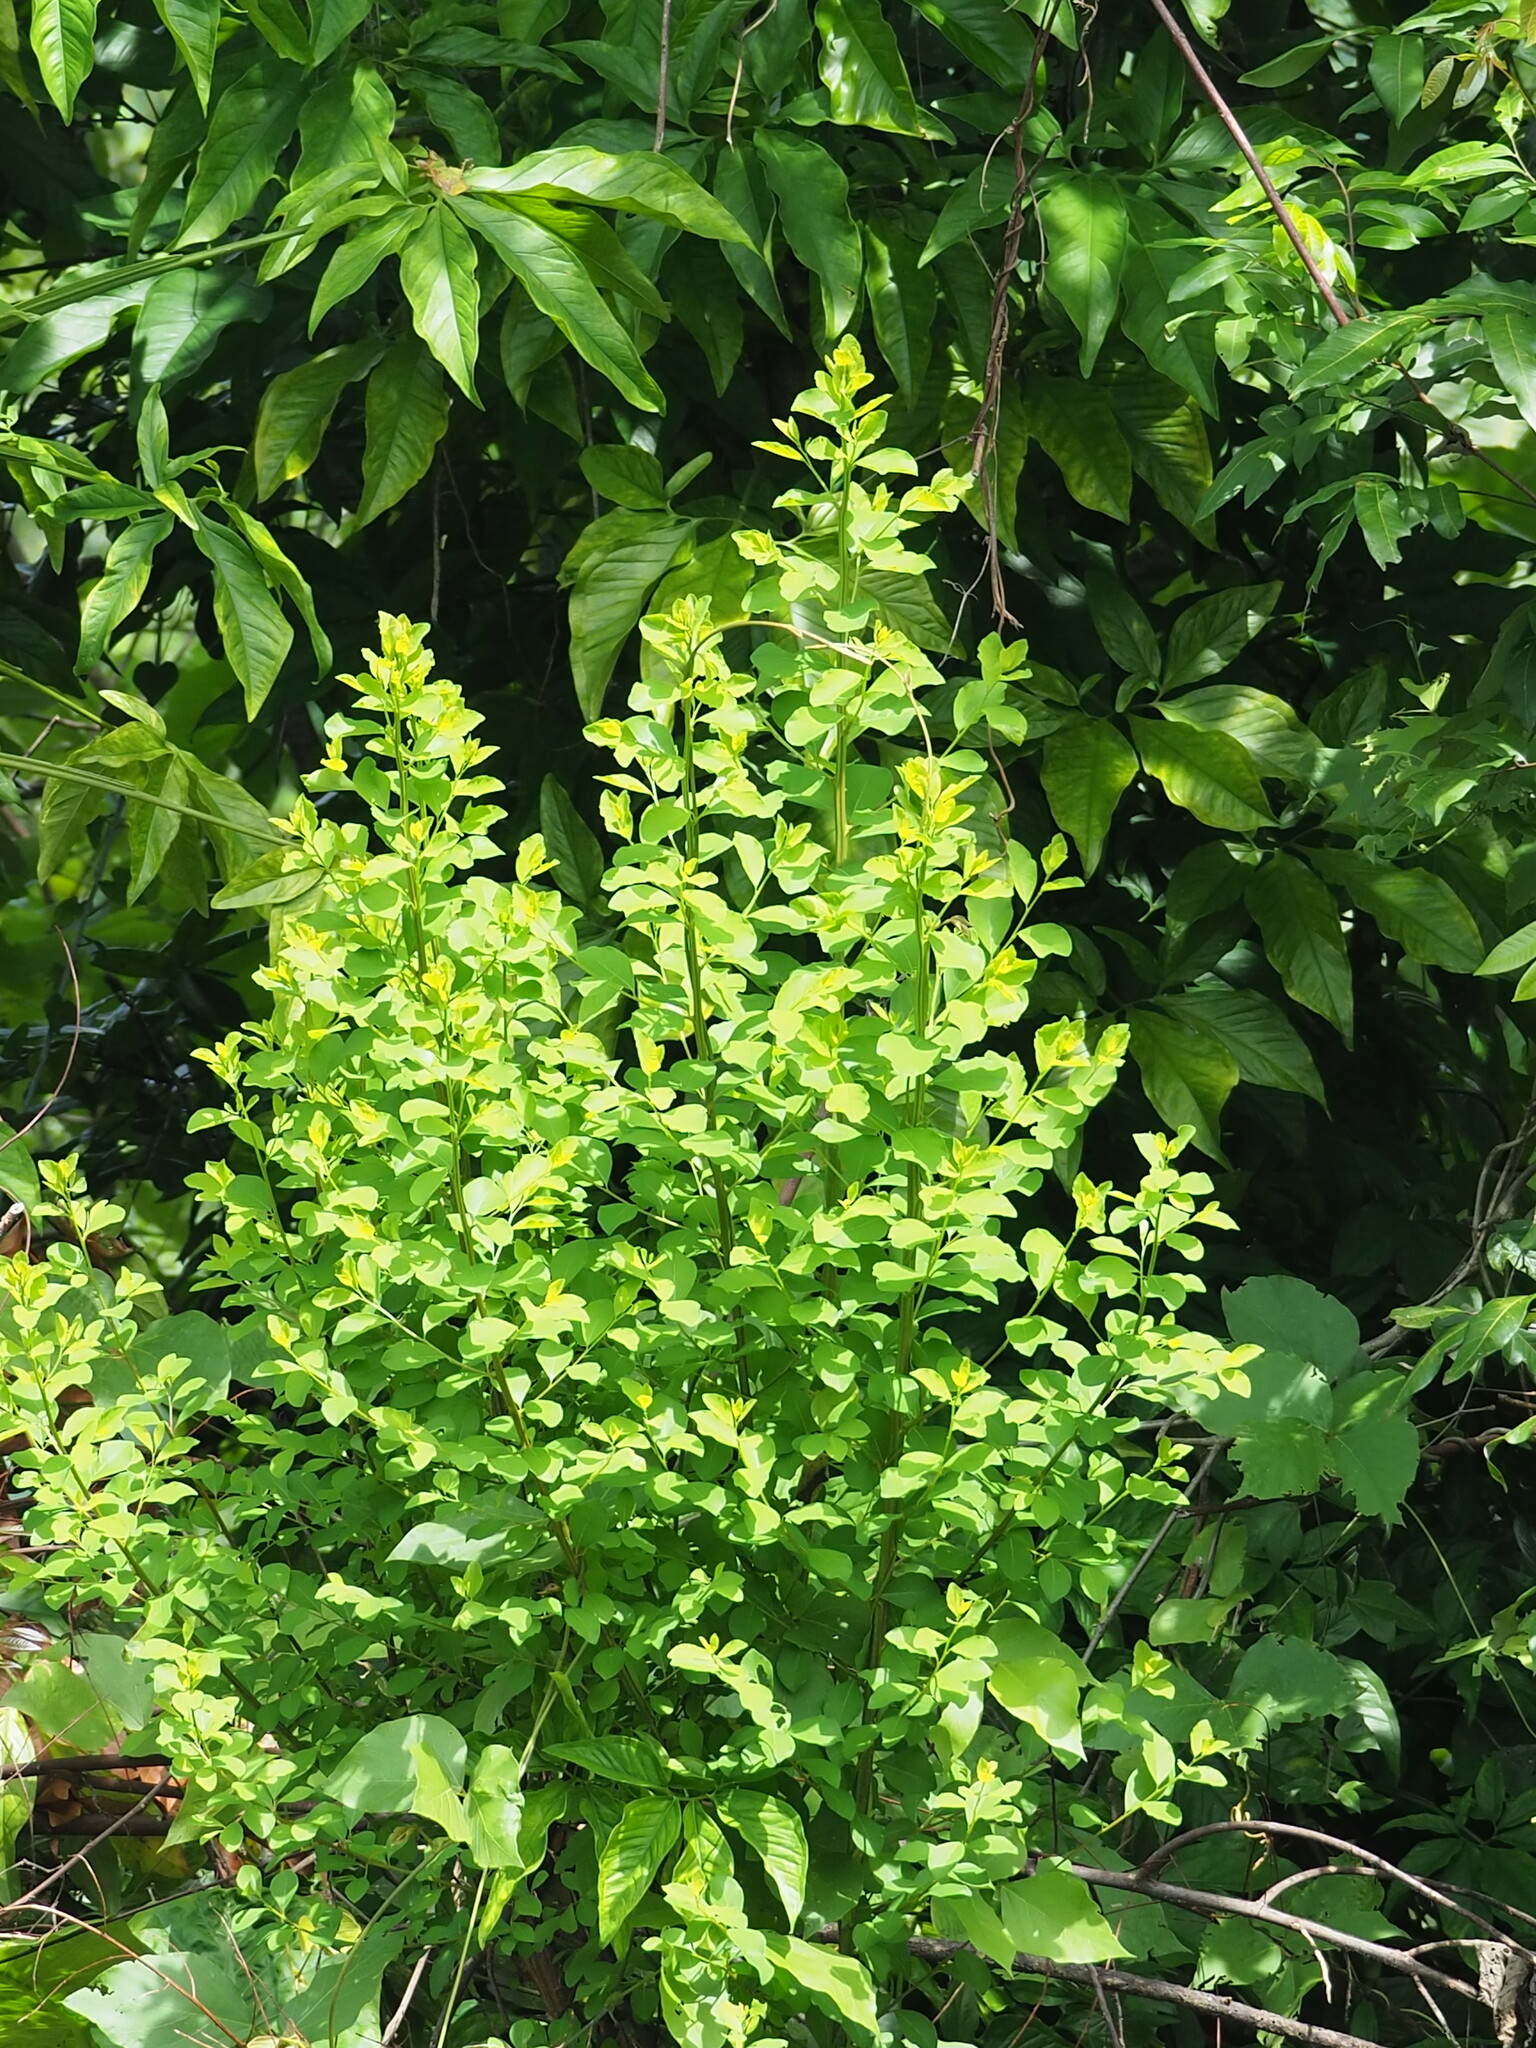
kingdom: Plantae
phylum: Tracheophyta
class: Magnoliopsida
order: Malpighiales
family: Phyllanthaceae
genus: Flueggea
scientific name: Flueggea virosa
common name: Common bushweed
